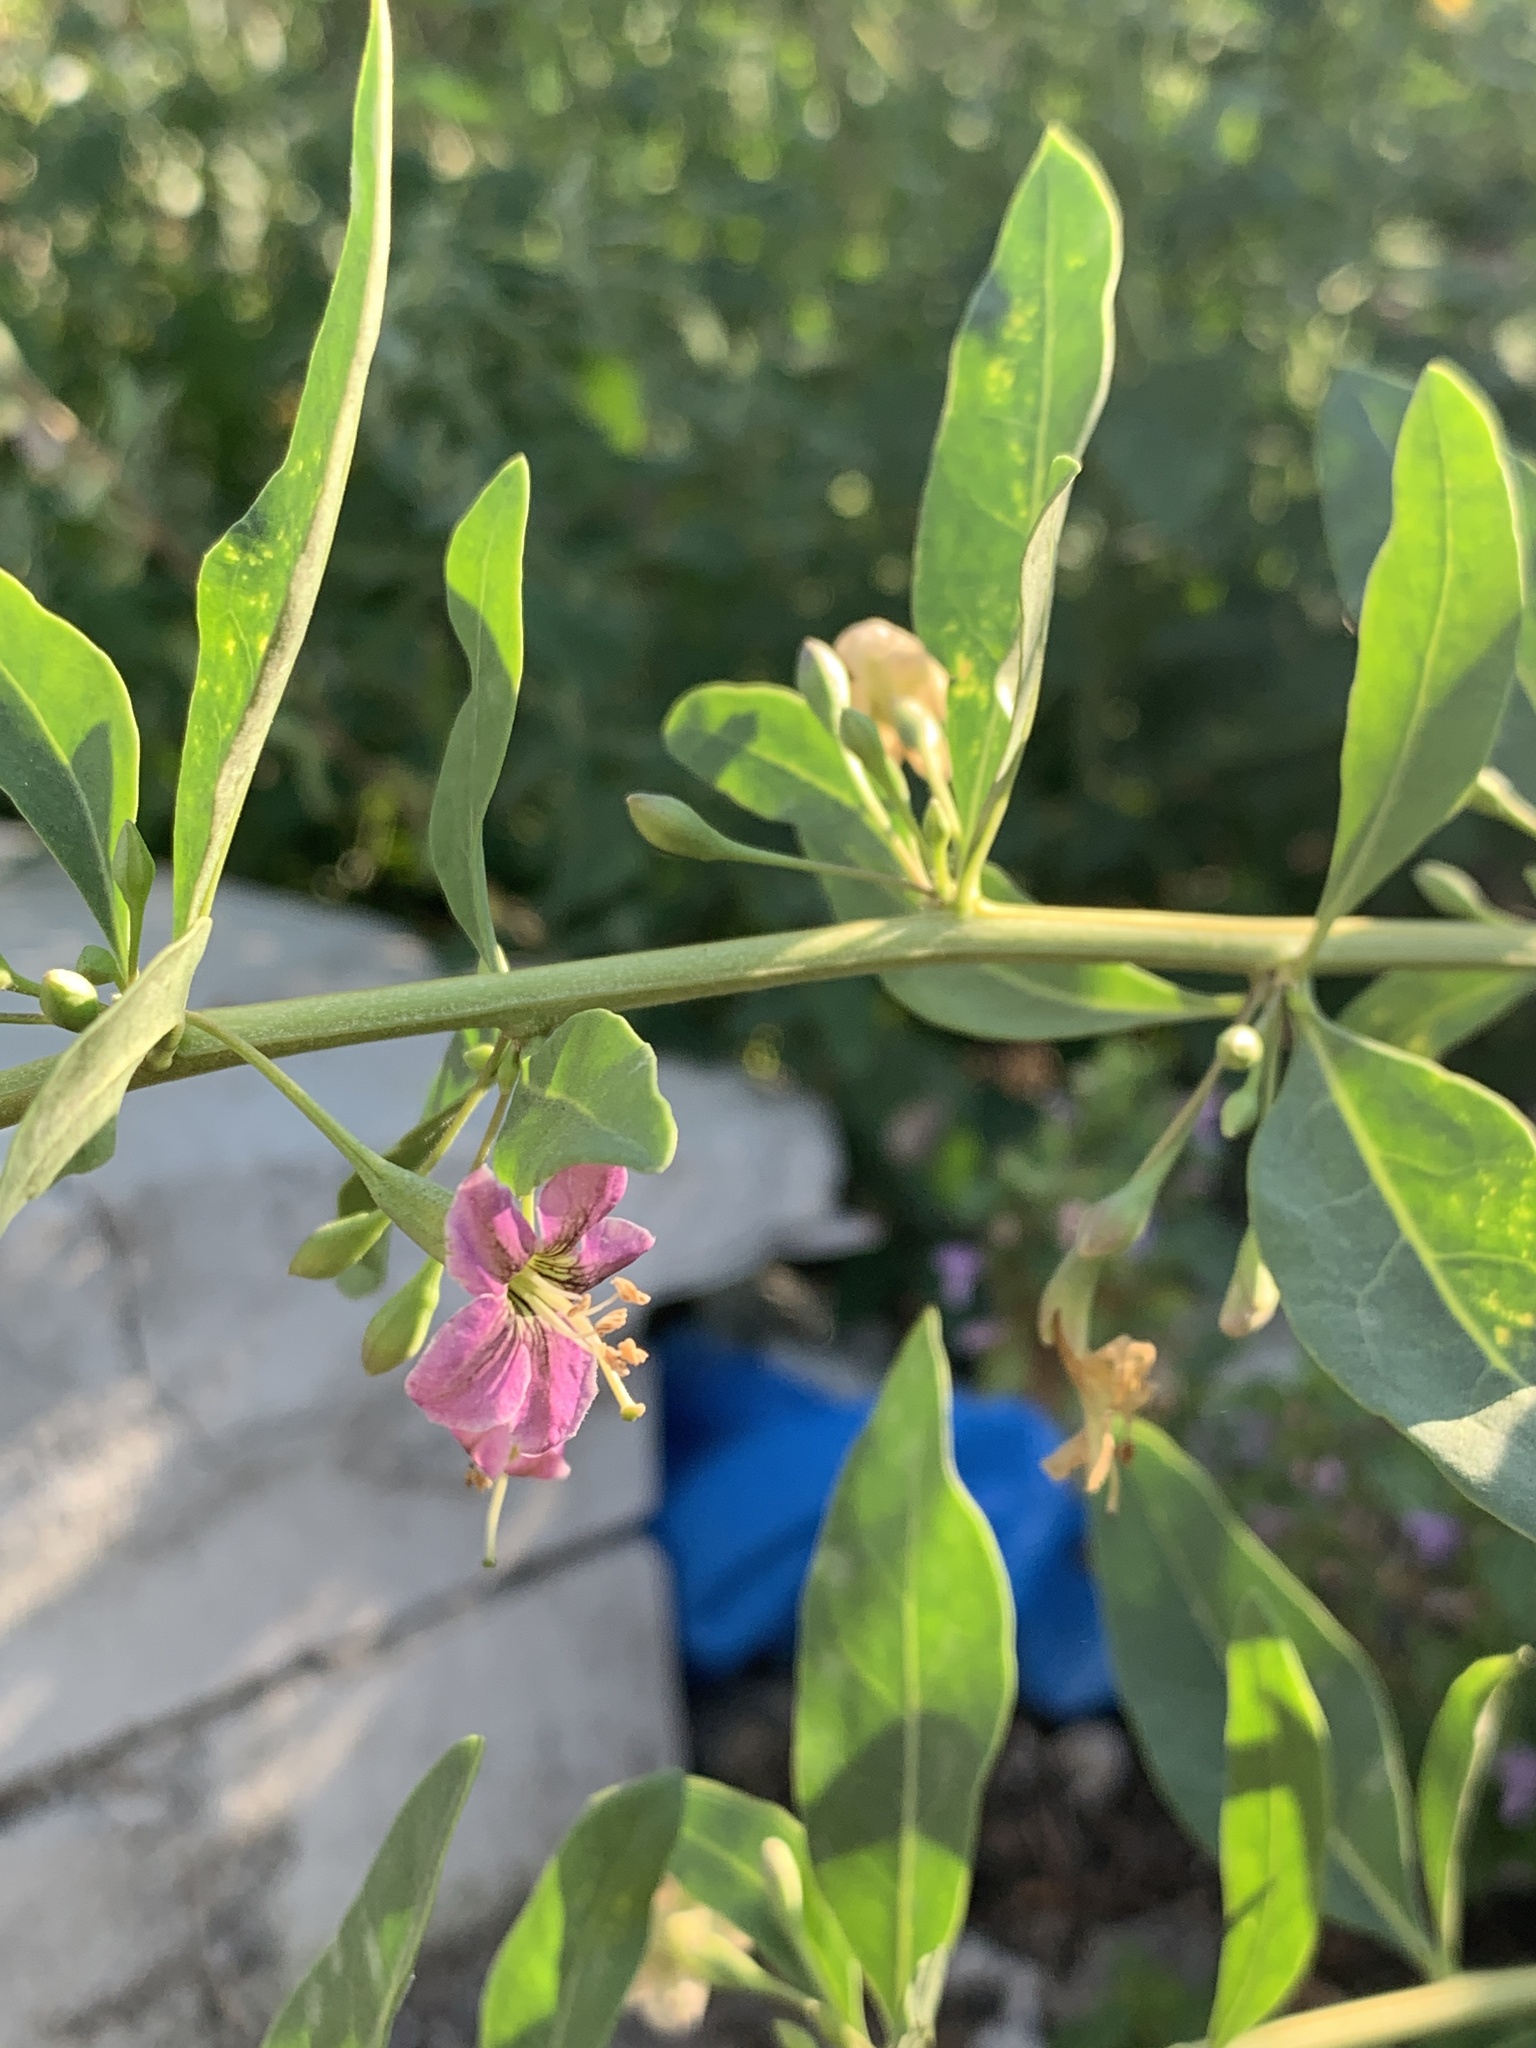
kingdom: Plantae
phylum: Tracheophyta
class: Magnoliopsida
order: Solanales
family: Solanaceae
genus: Lycium
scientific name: Lycium barbarum
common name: Duke of argyll's teaplant
